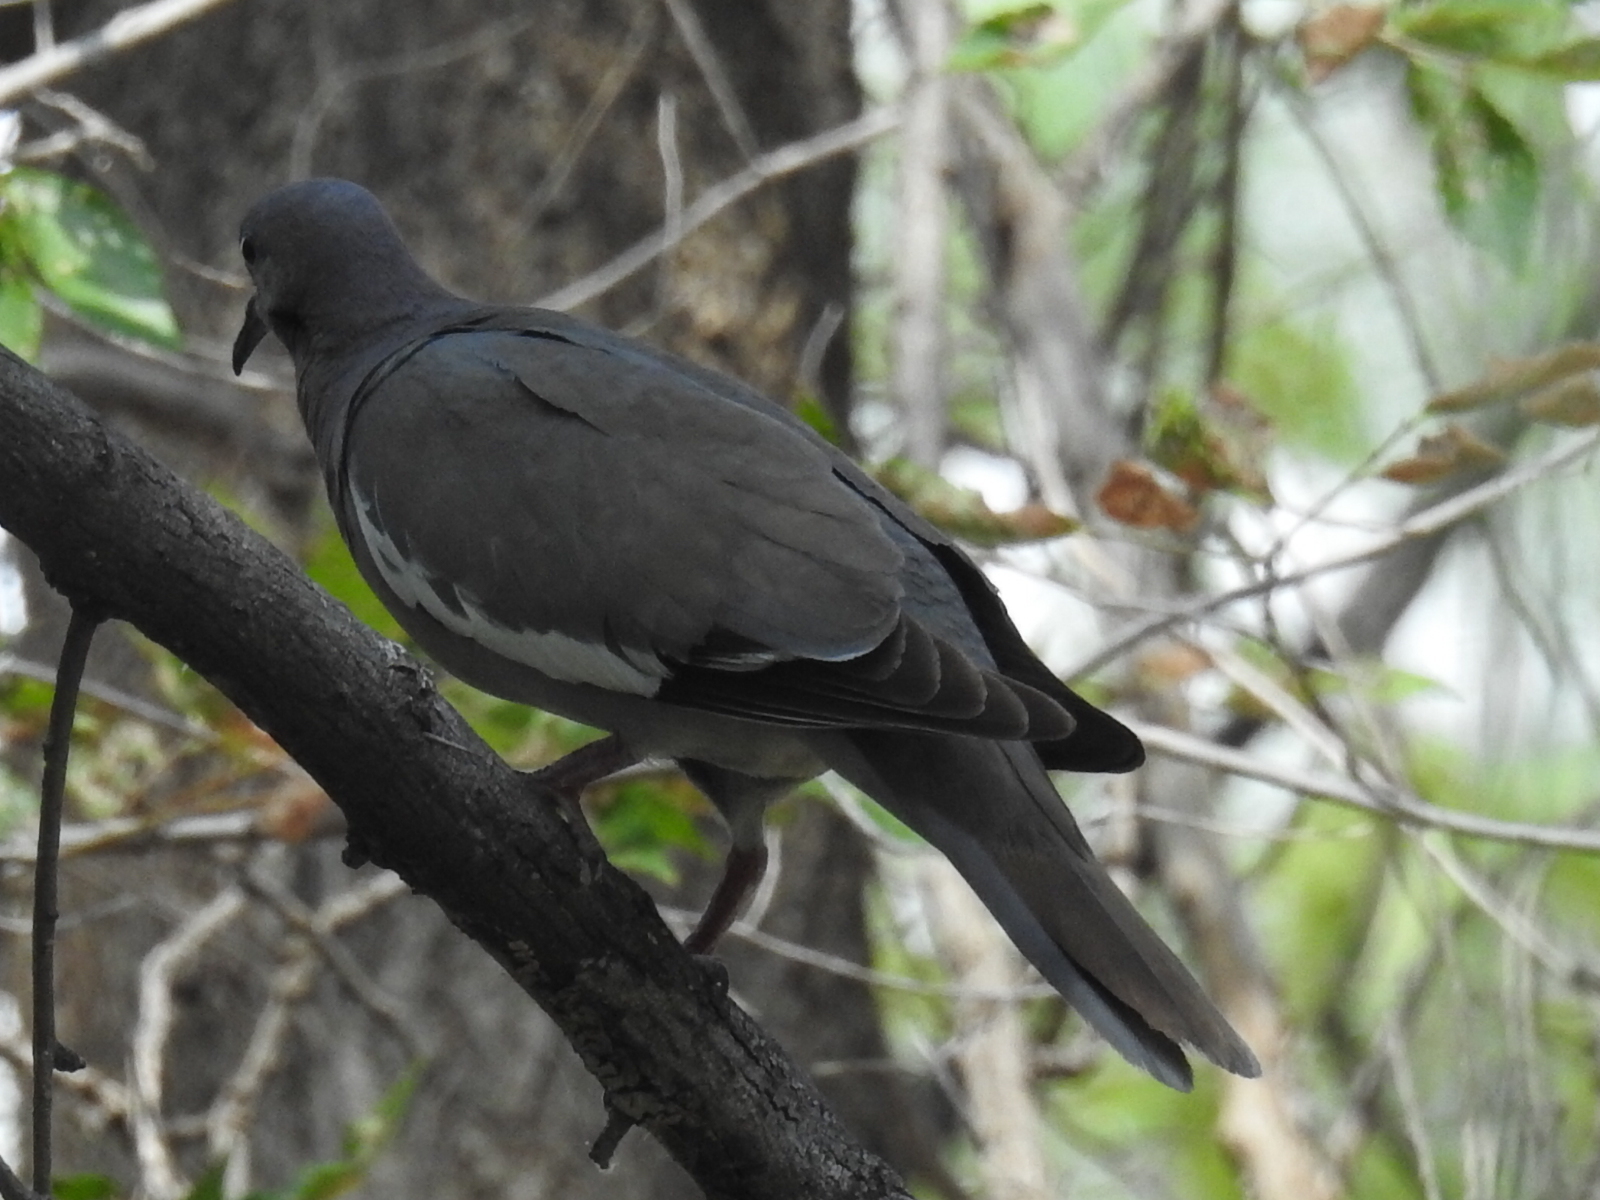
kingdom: Animalia
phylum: Chordata
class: Aves
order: Columbiformes
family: Columbidae
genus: Zenaida
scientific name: Zenaida asiatica
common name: White-winged dove
